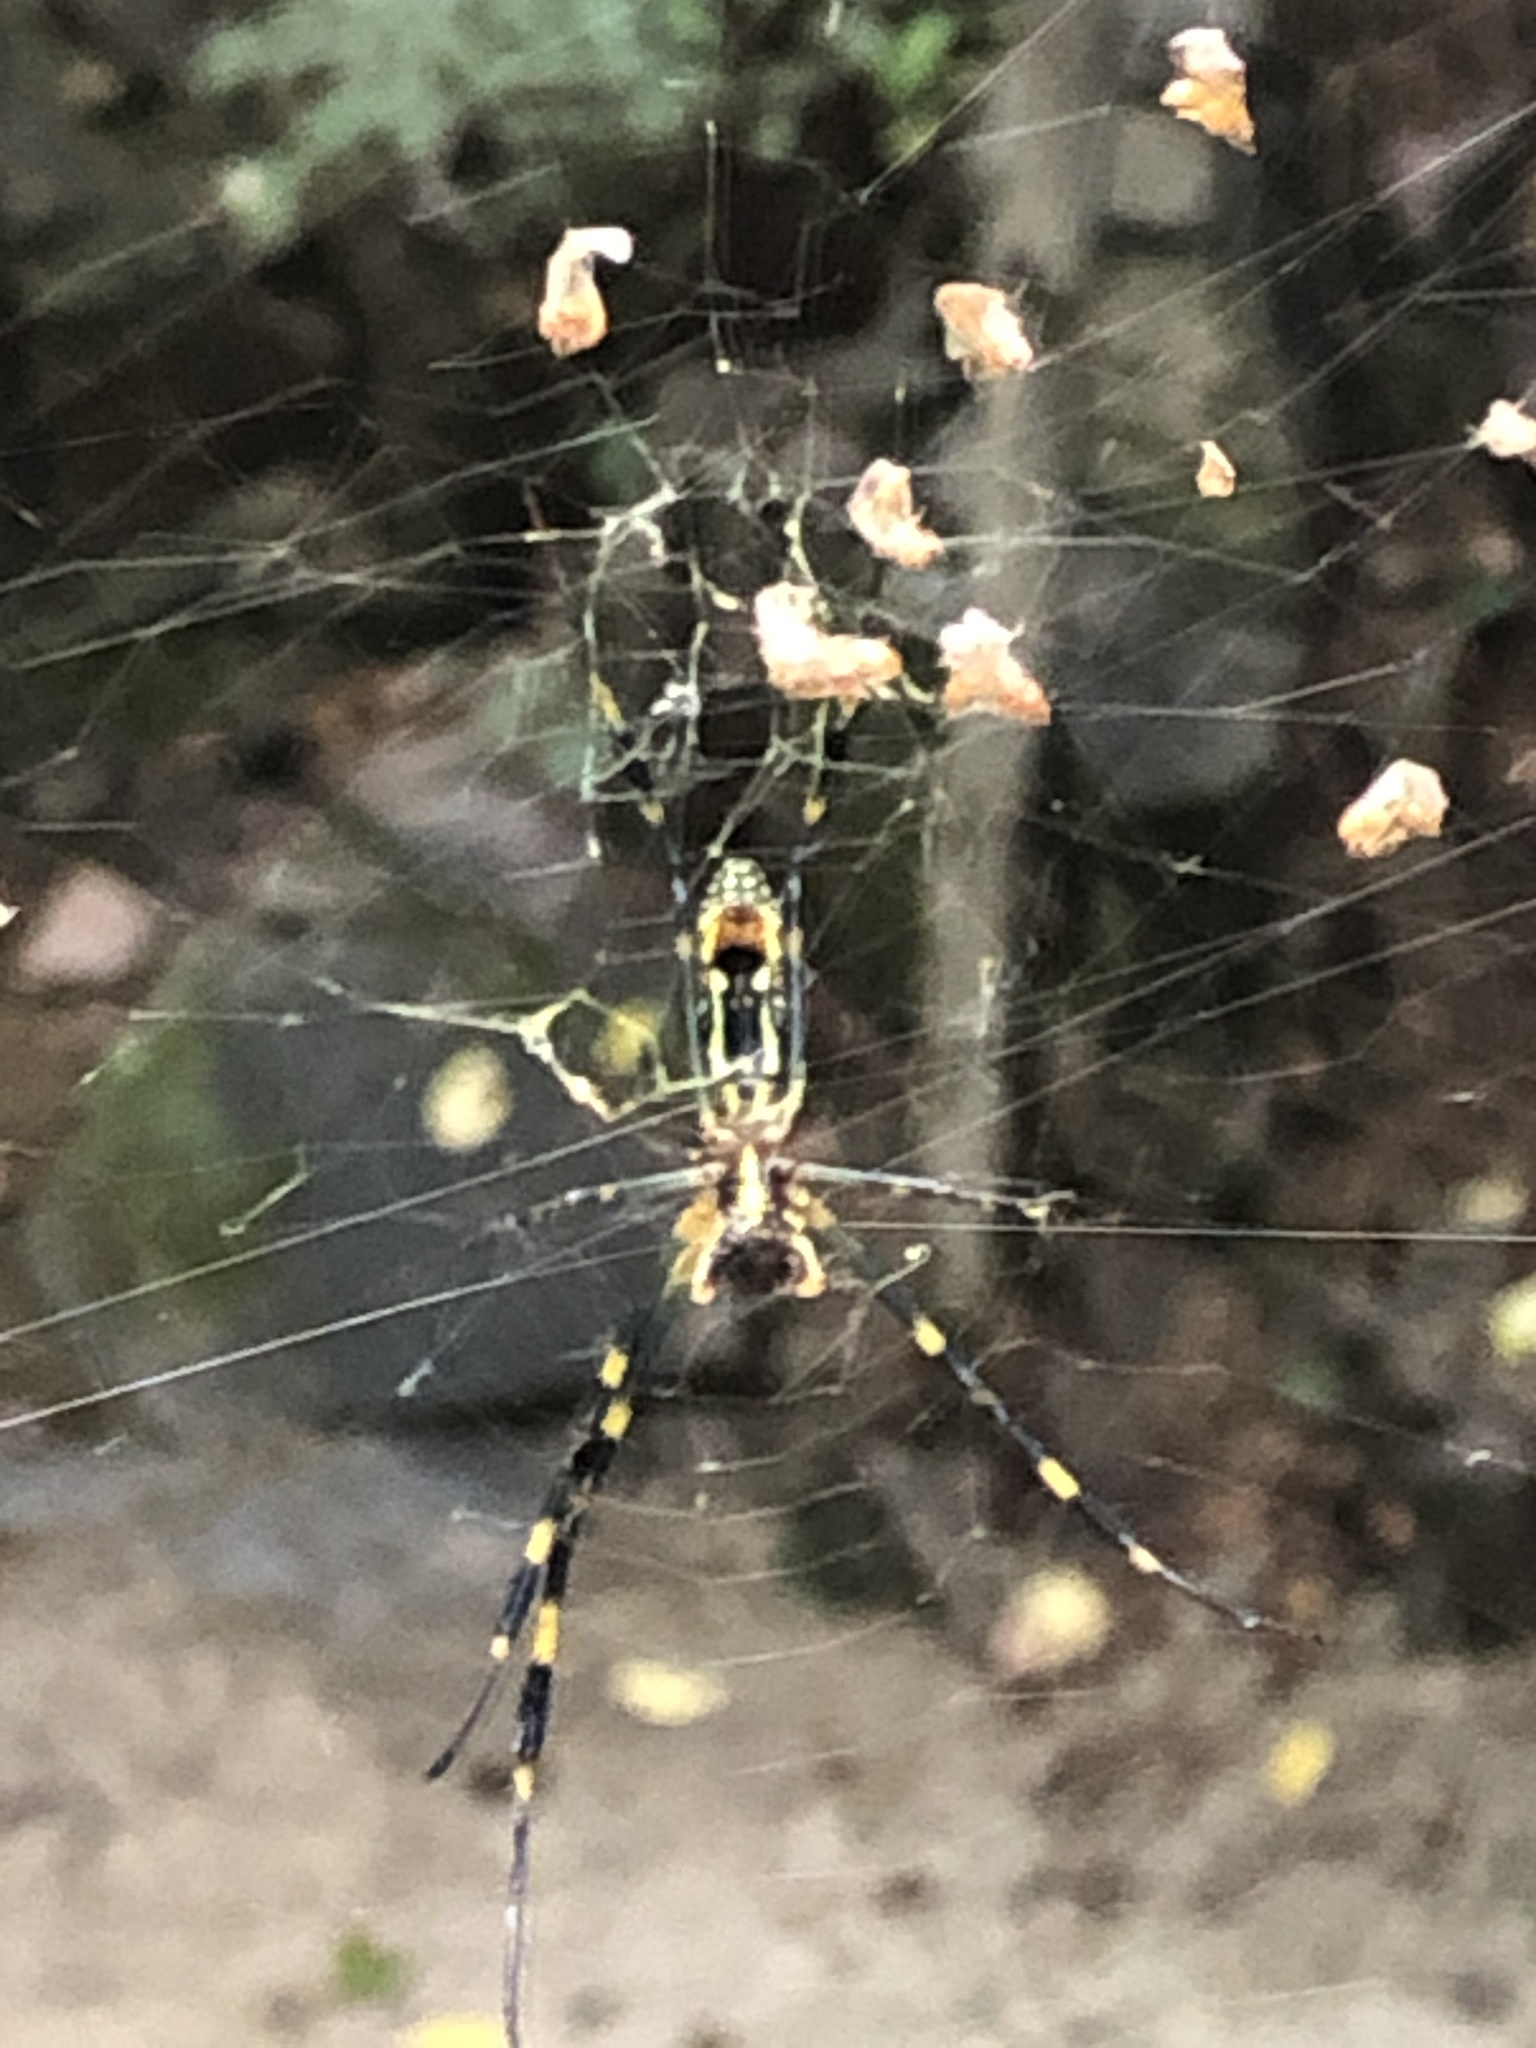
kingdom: Animalia
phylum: Arthropoda
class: Arachnida
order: Araneae
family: Araneidae
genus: Trichonephila
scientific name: Trichonephila clavata
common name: Jorō spider
